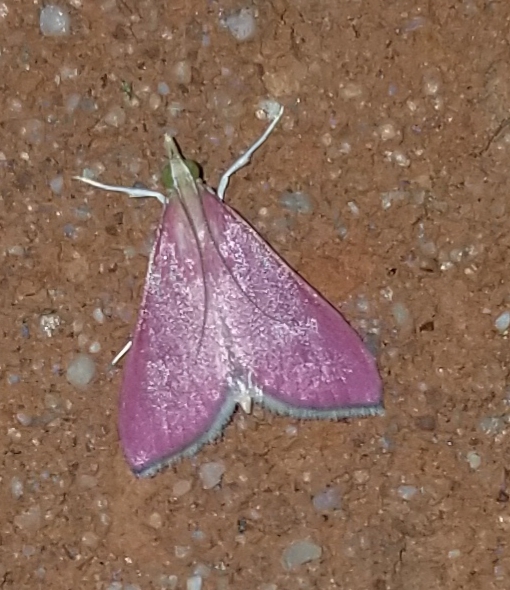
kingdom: Animalia
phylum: Arthropoda
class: Insecta
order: Lepidoptera
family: Crambidae
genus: Pyrausta
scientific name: Pyrausta inornatalis
